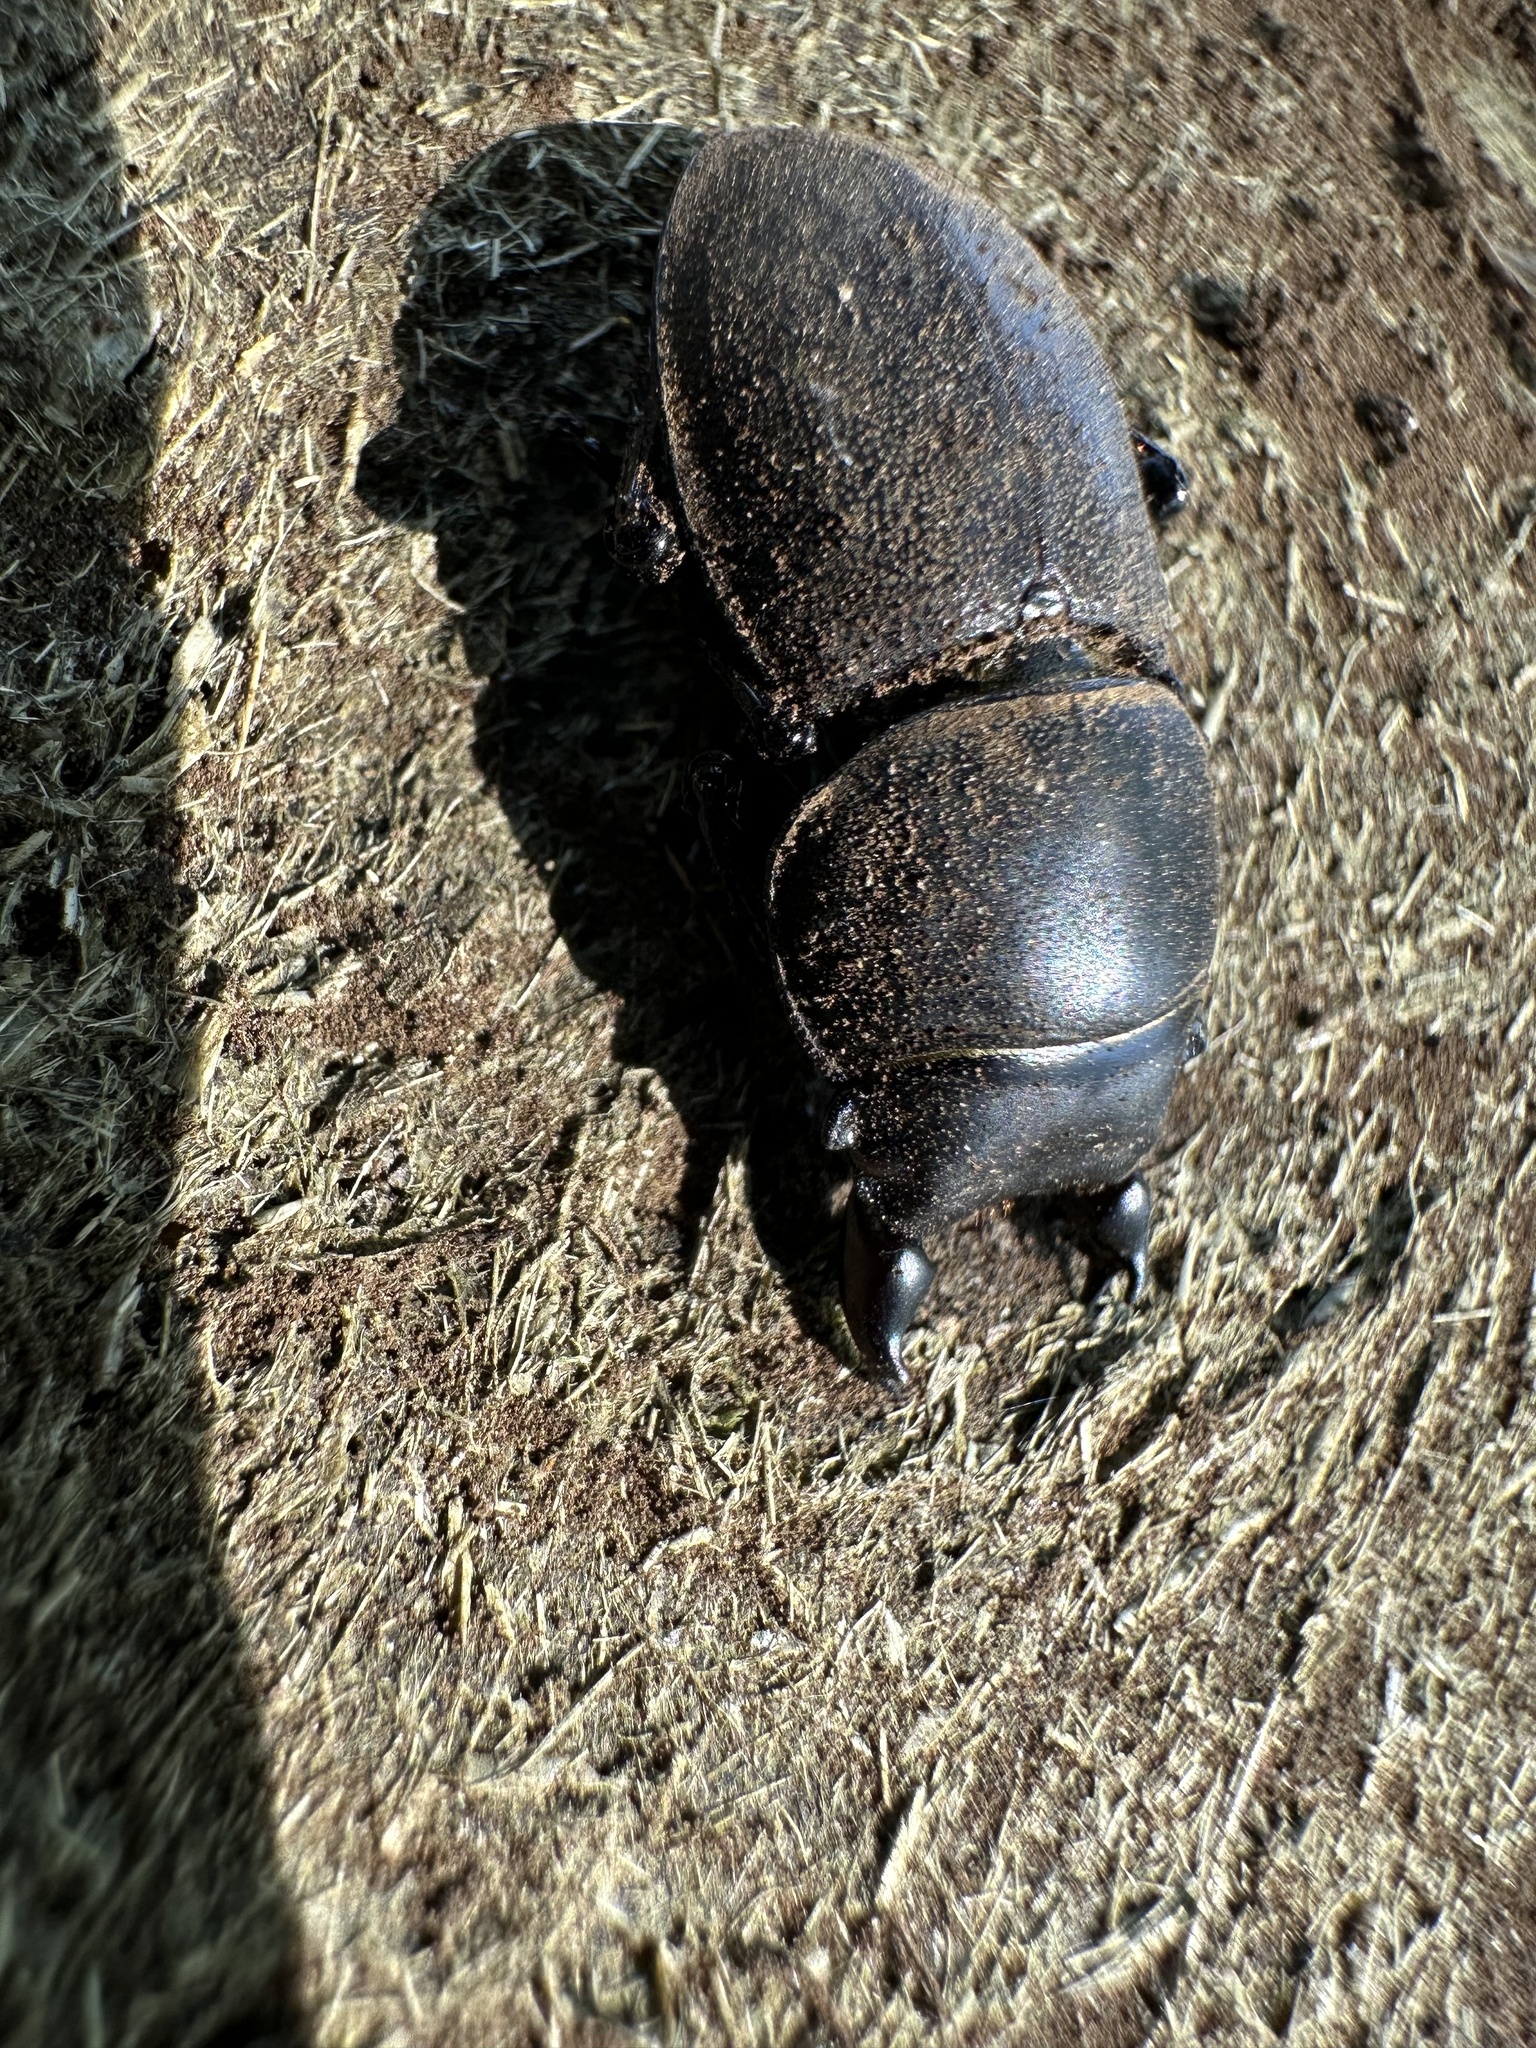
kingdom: Animalia
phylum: Arthropoda
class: Insecta
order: Coleoptera
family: Lucanidae
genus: Apterodorcus
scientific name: Apterodorcus bacchus
